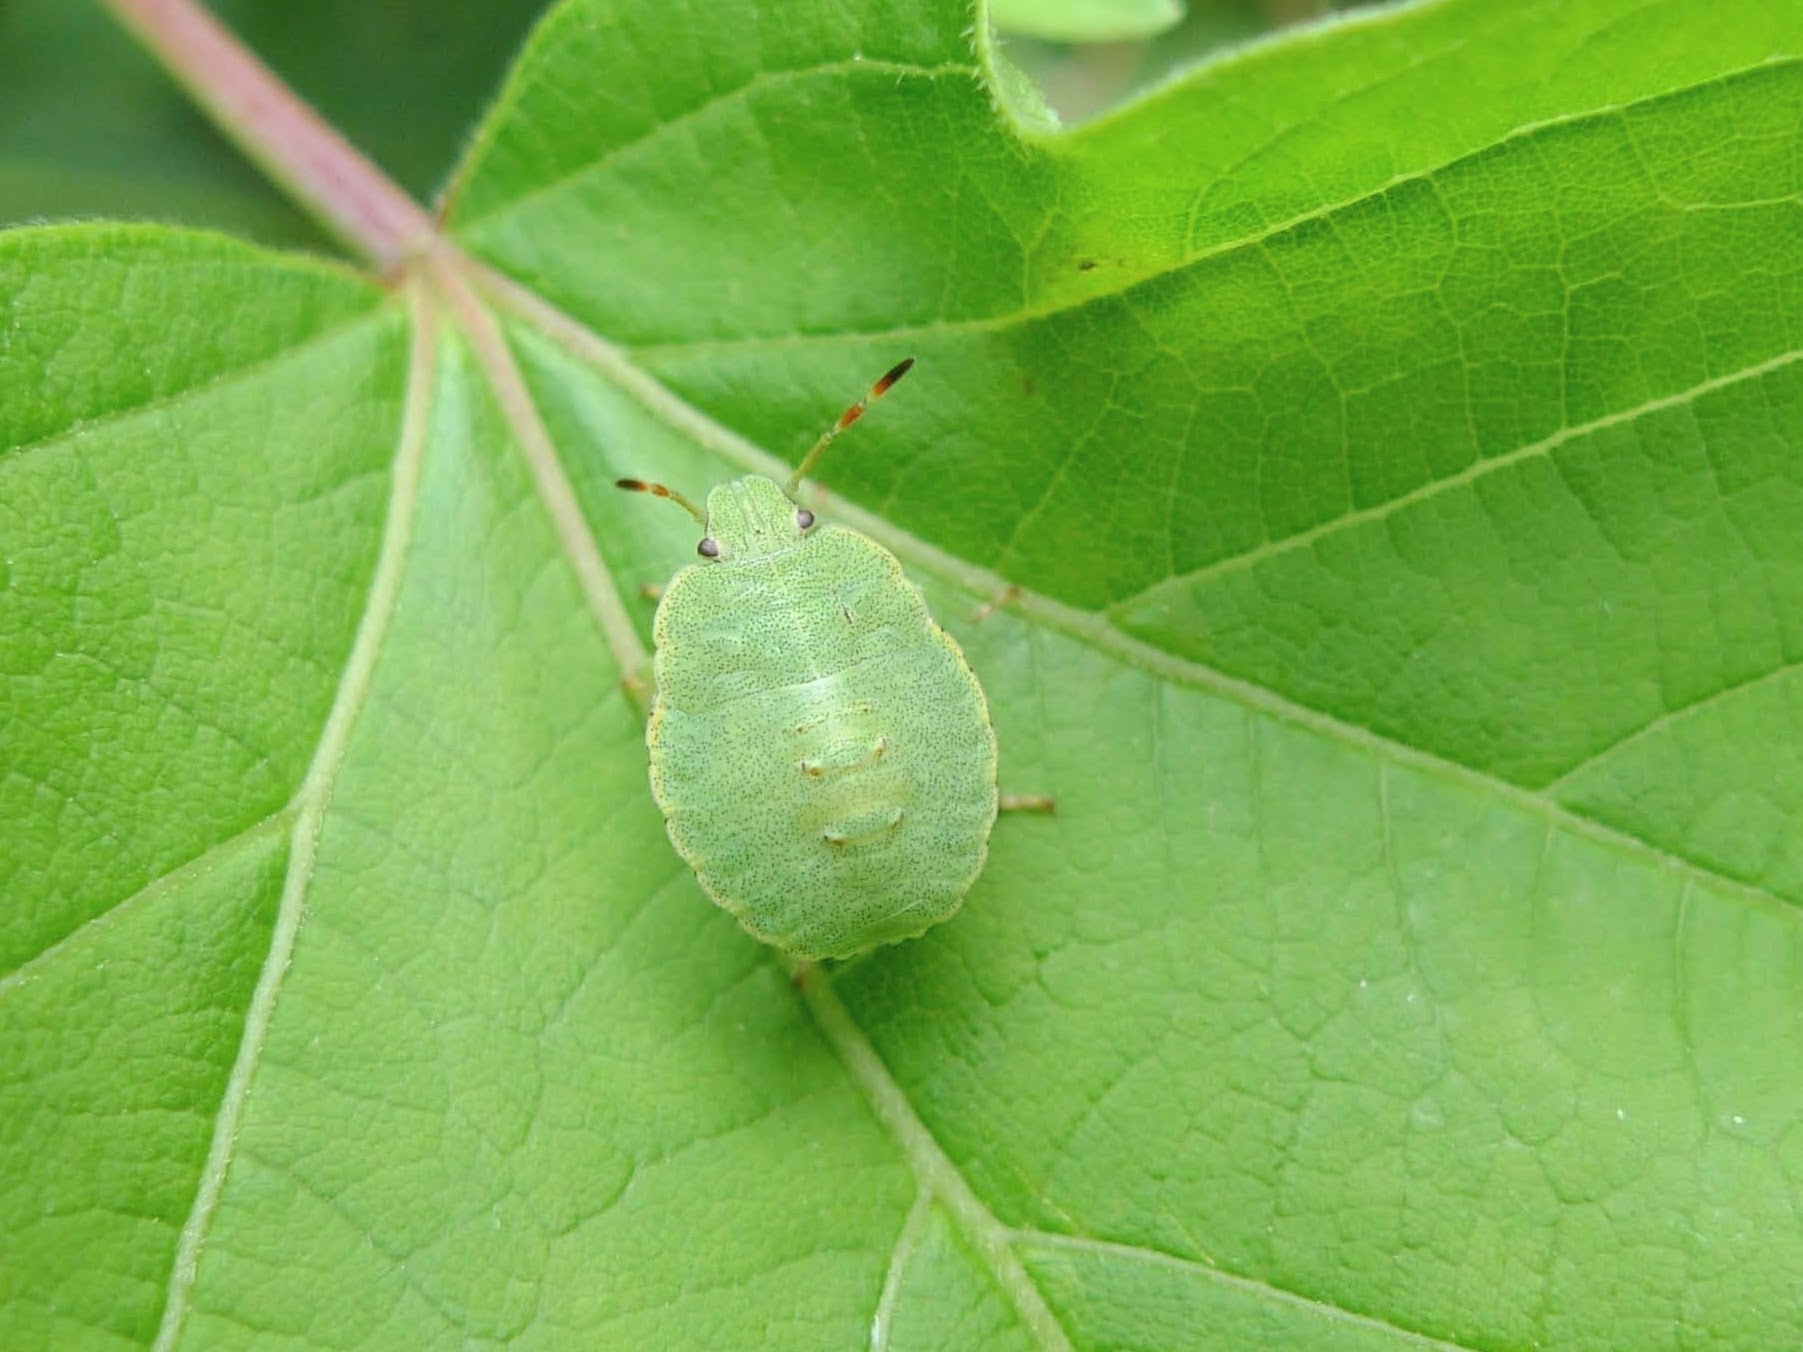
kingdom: Animalia
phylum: Arthropoda
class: Insecta
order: Hemiptera
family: Pentatomidae
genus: Palomena
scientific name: Palomena prasina
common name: Green shieldbug
